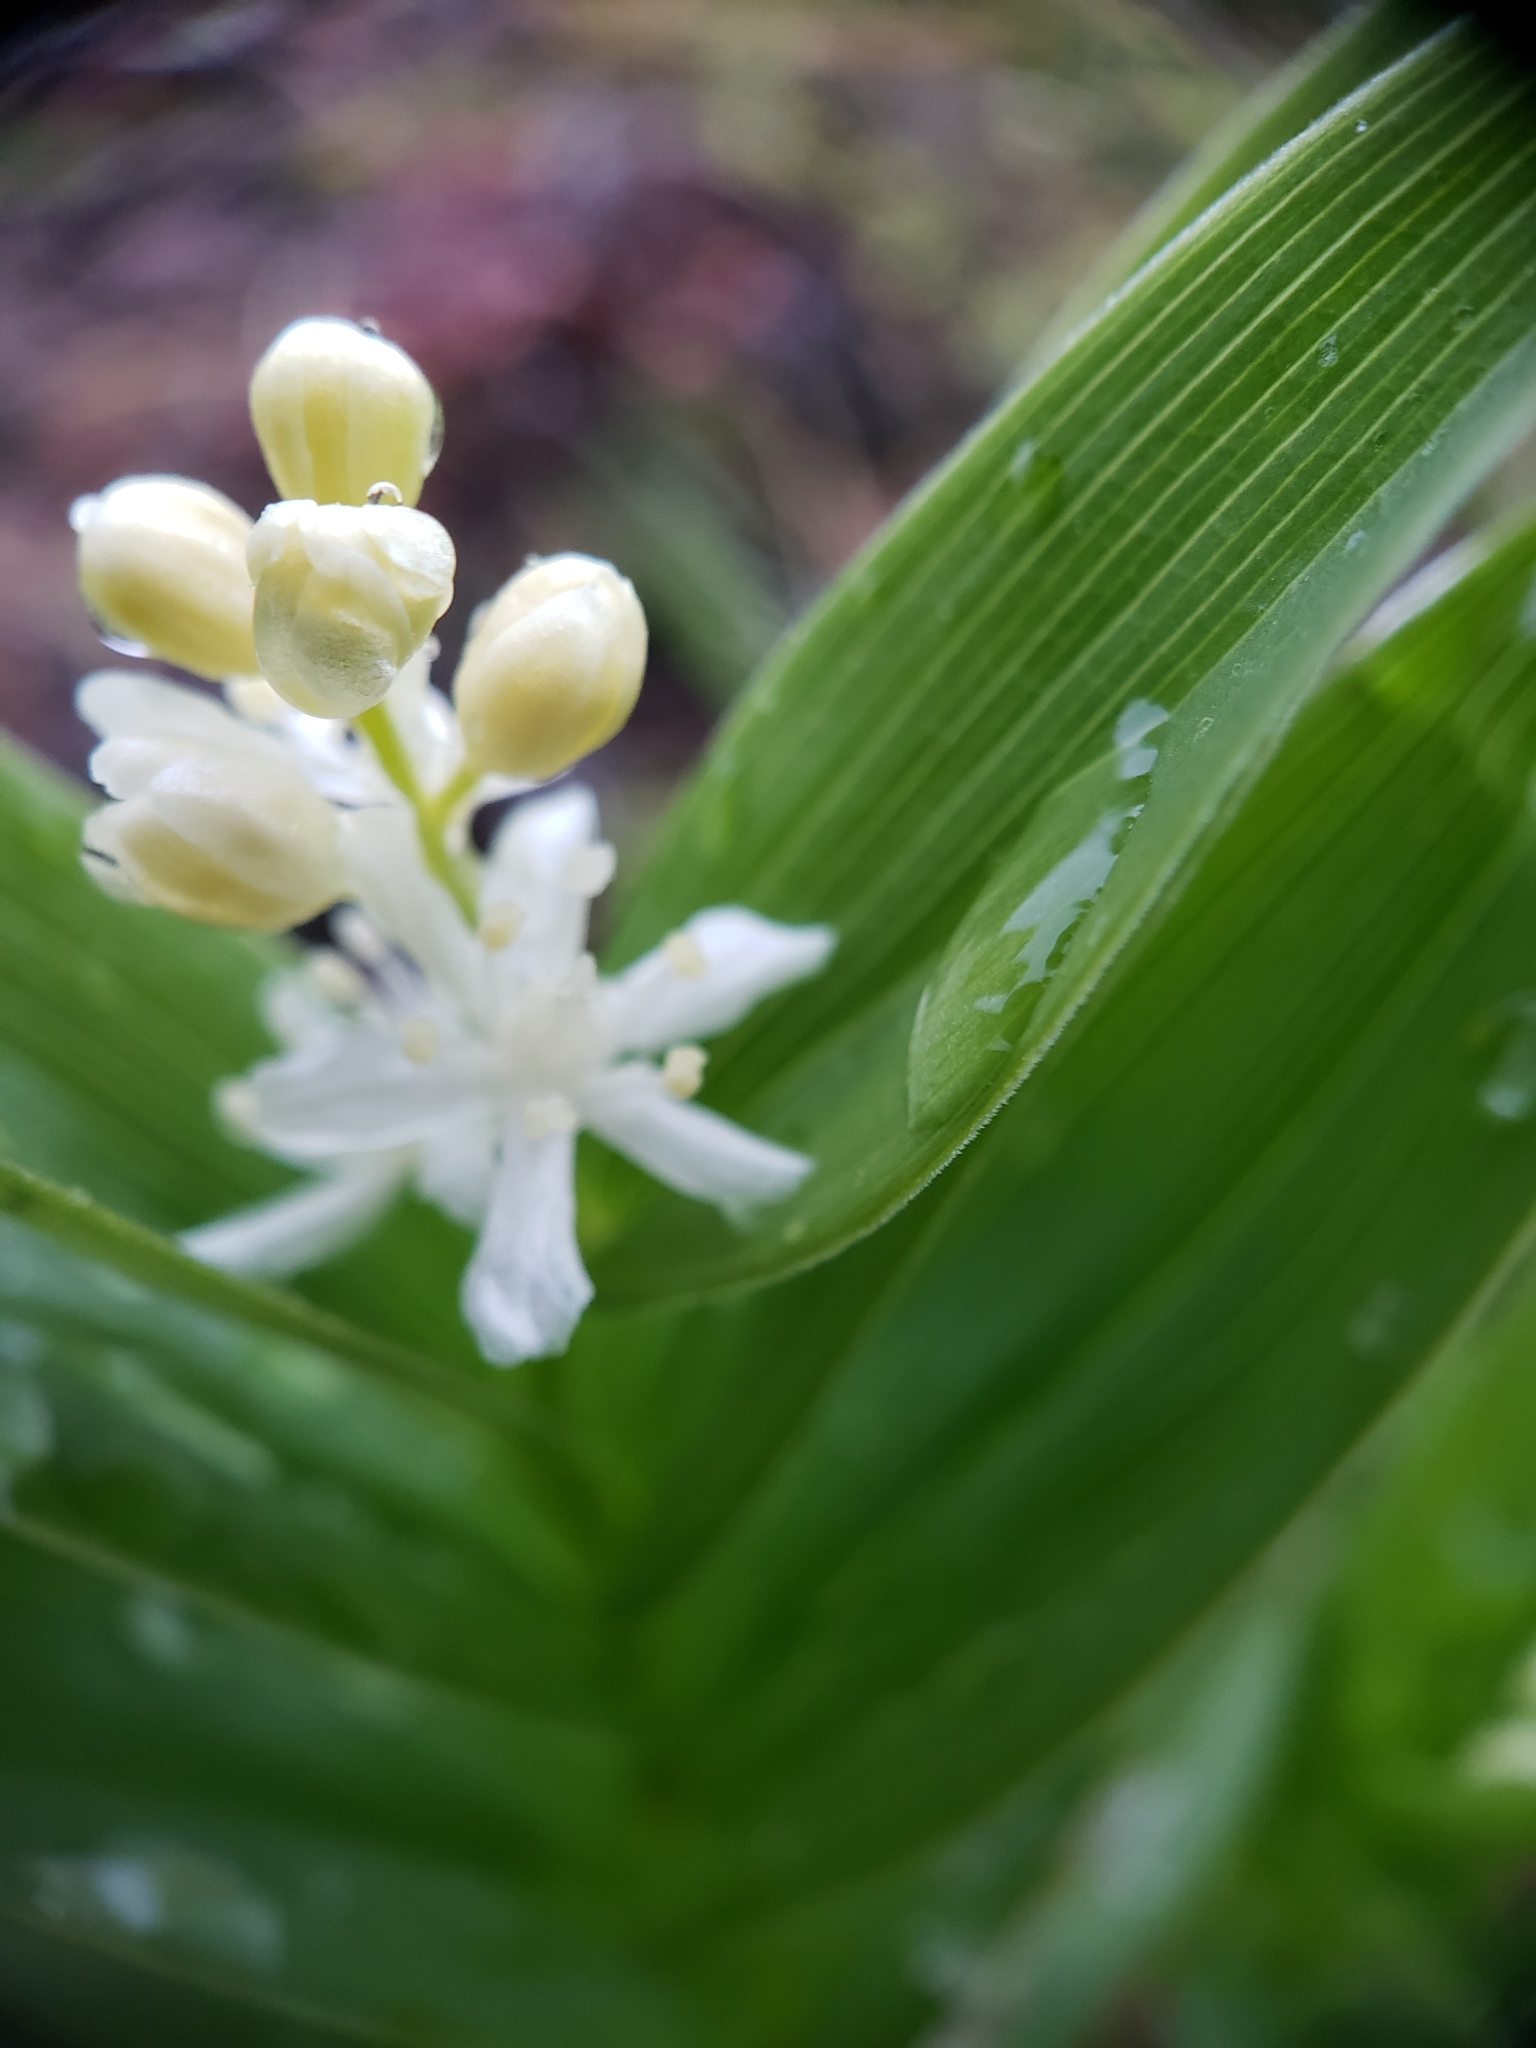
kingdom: Plantae
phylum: Tracheophyta
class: Liliopsida
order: Asparagales
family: Asparagaceae
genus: Maianthemum
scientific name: Maianthemum stellatum
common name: Little false solomon's seal
